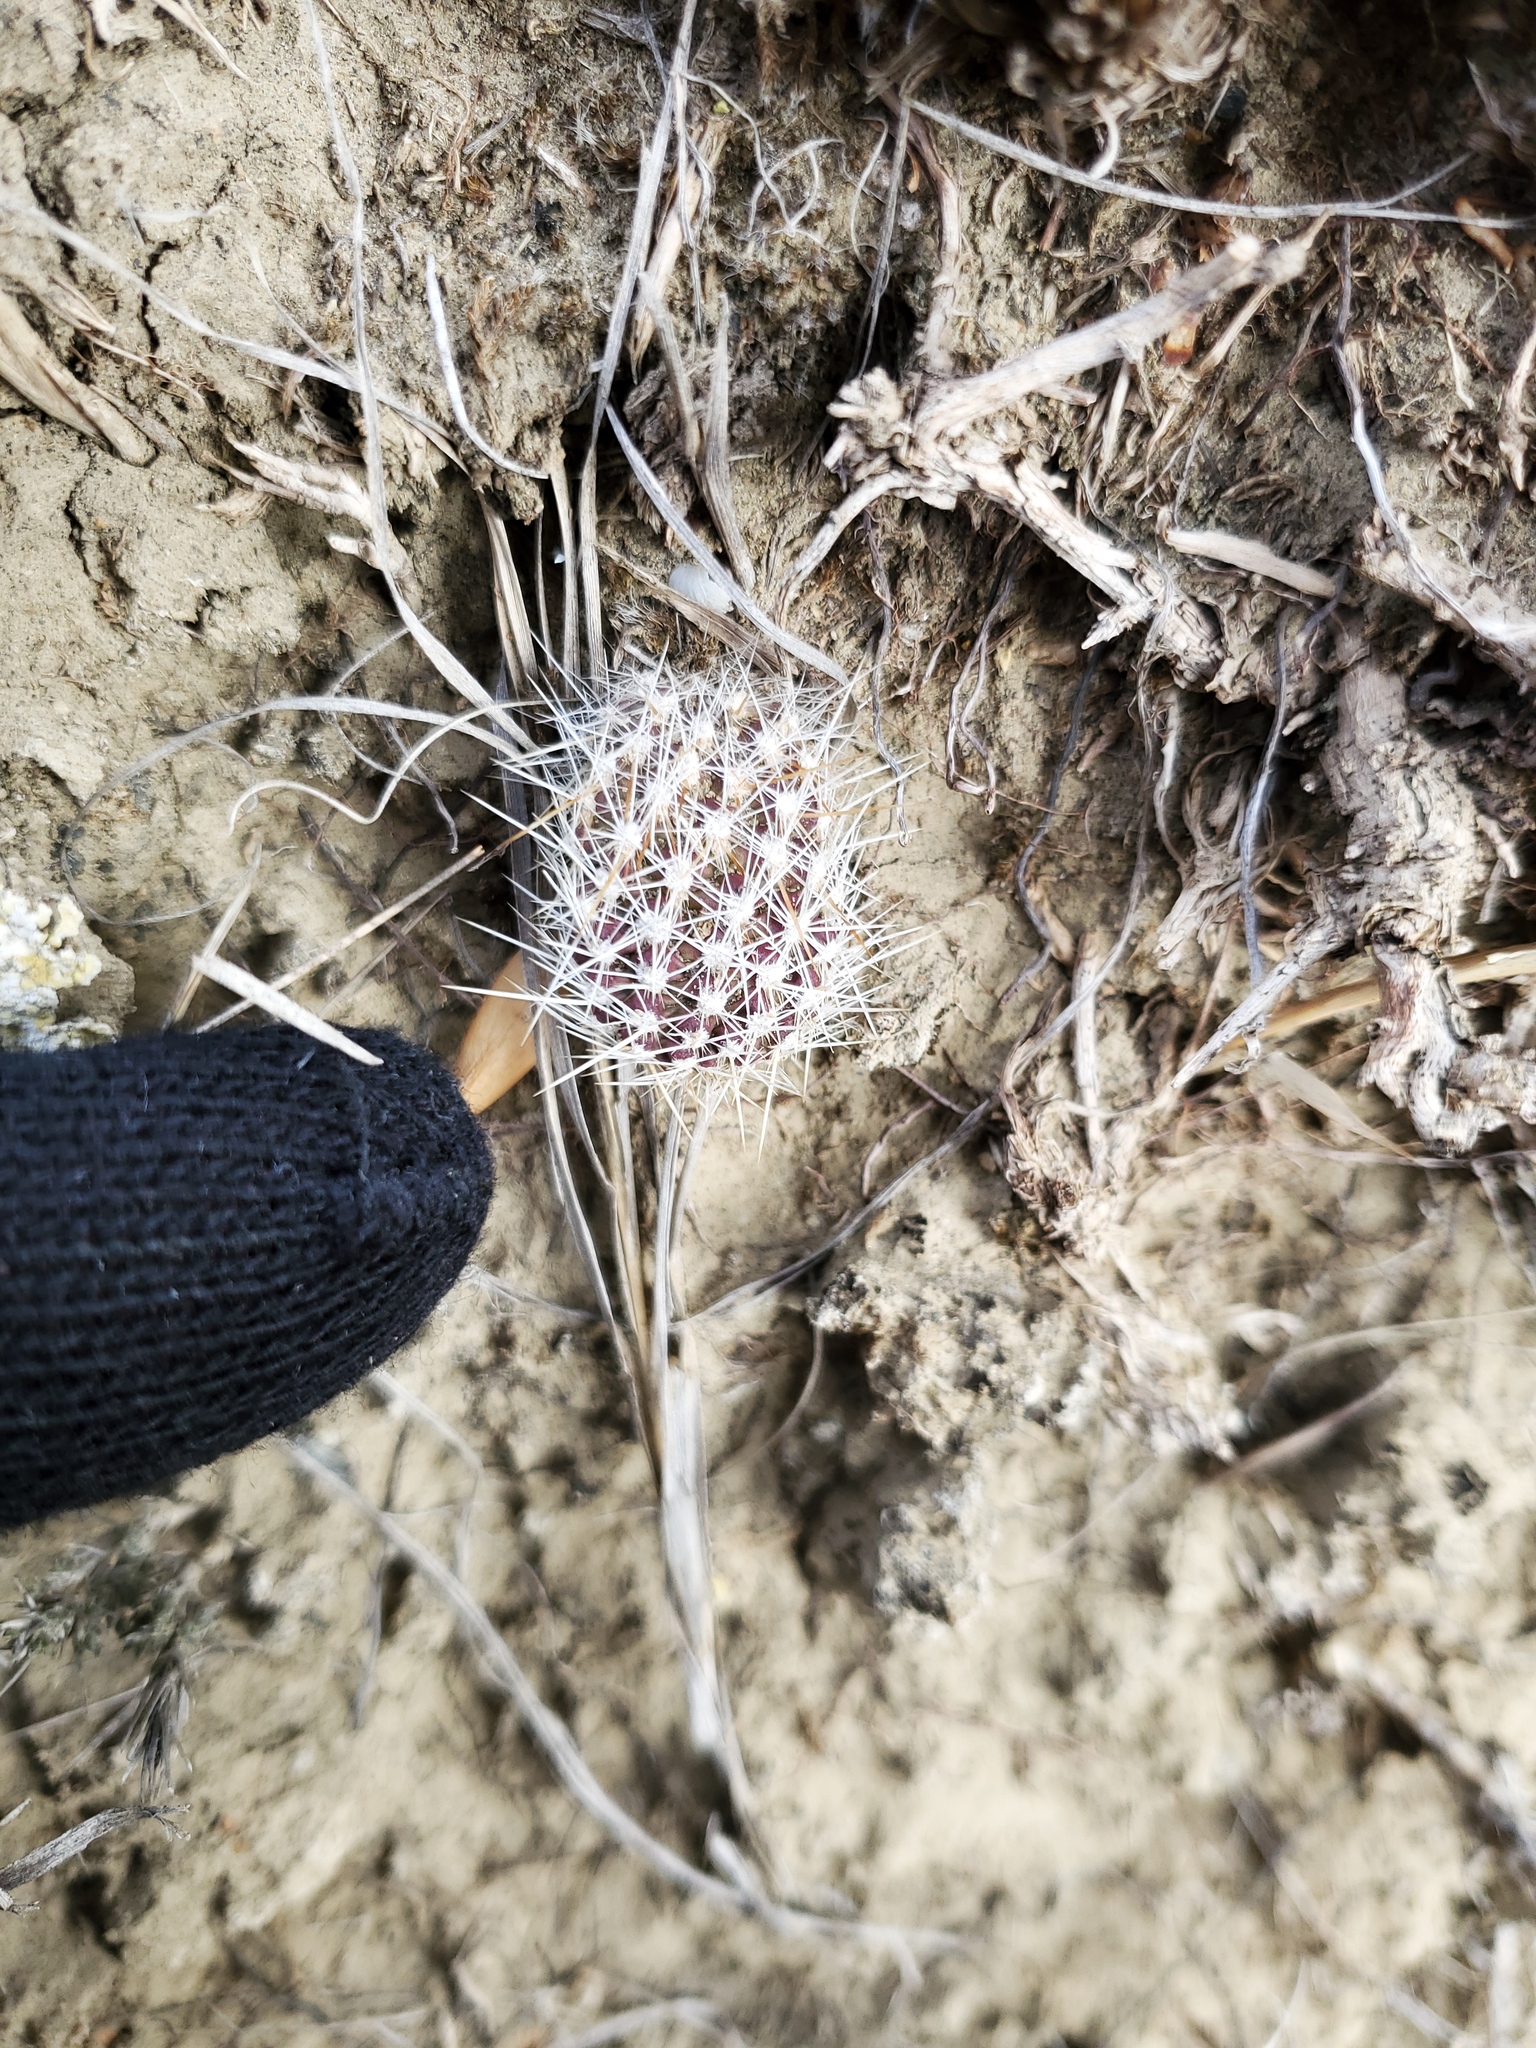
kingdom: Plantae
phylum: Tracheophyta
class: Magnoliopsida
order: Caryophyllales
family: Cactaceae
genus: Opuntia
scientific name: Opuntia polyacantha
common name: Plains prickly-pear
